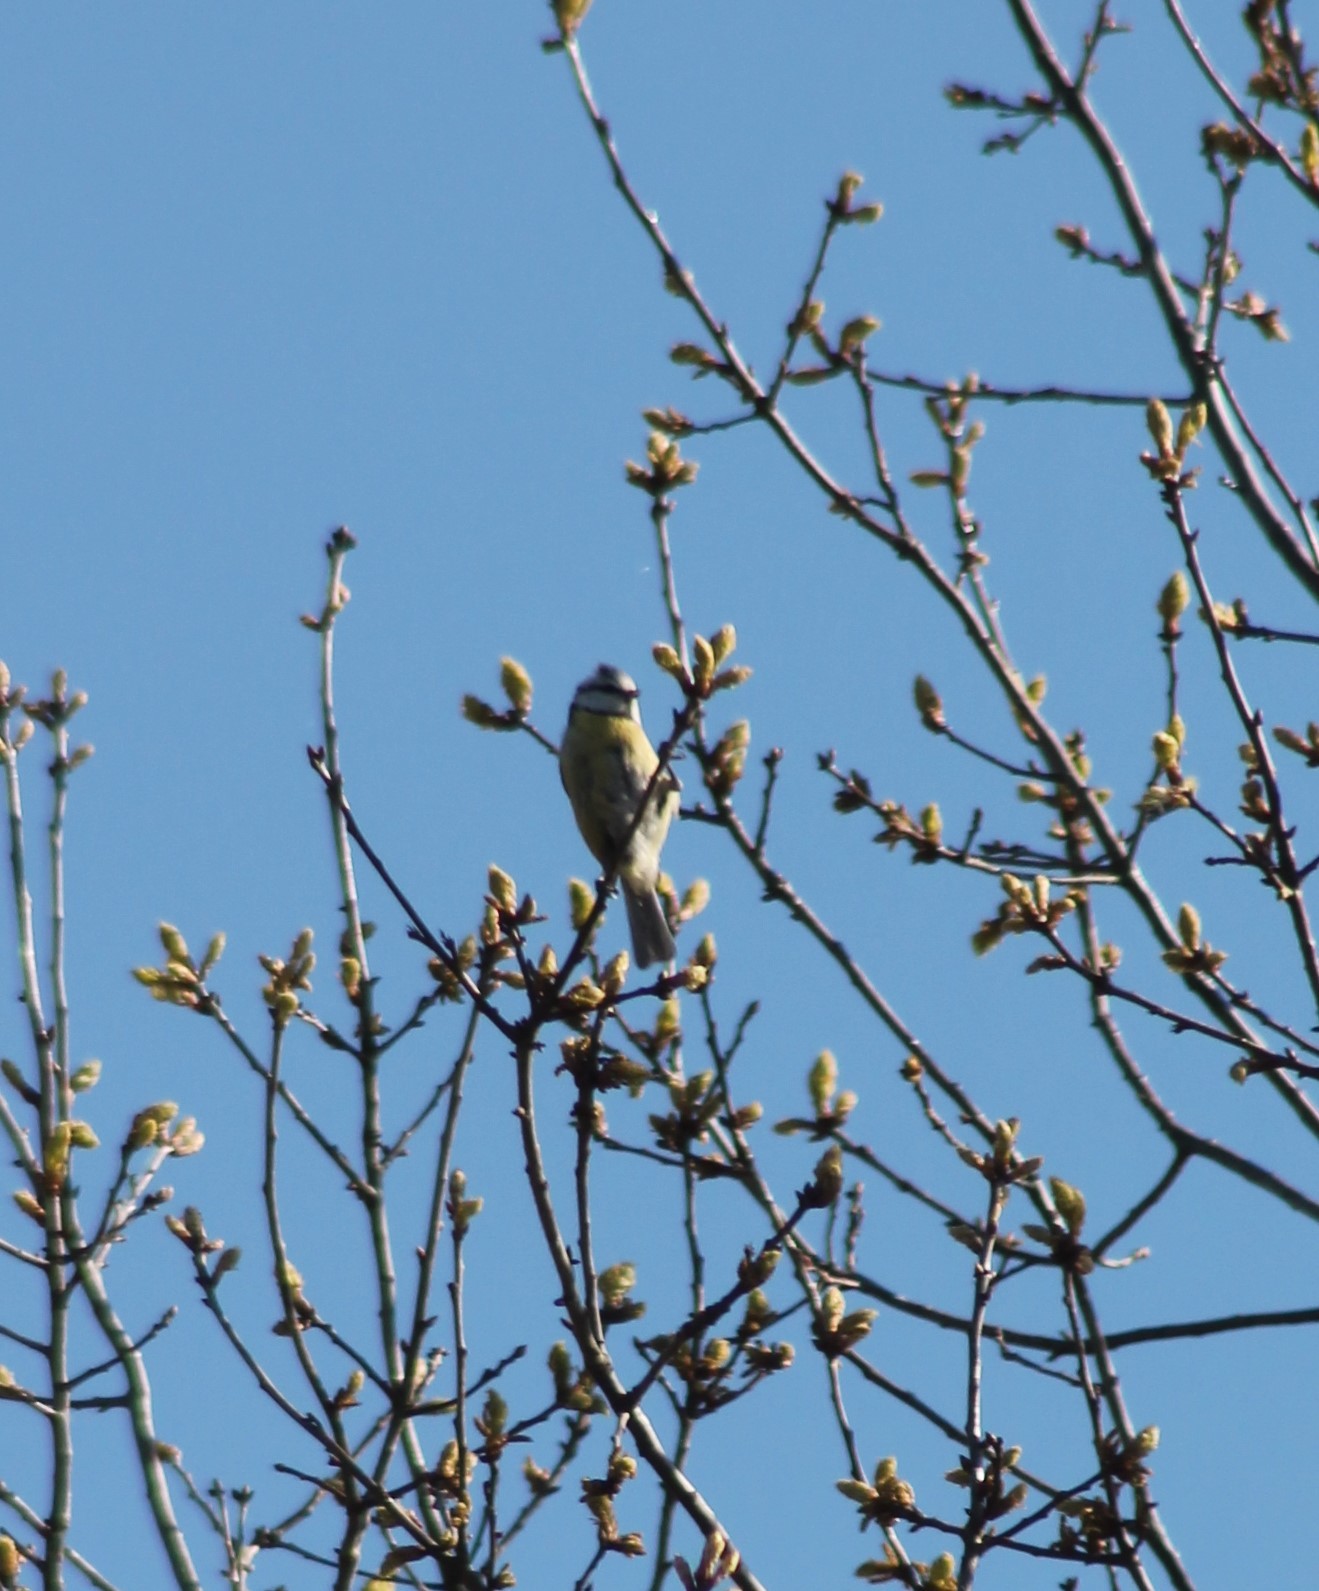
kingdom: Animalia
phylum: Chordata
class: Aves
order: Passeriformes
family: Paridae
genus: Cyanistes
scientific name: Cyanistes caeruleus
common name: Eurasian blue tit
